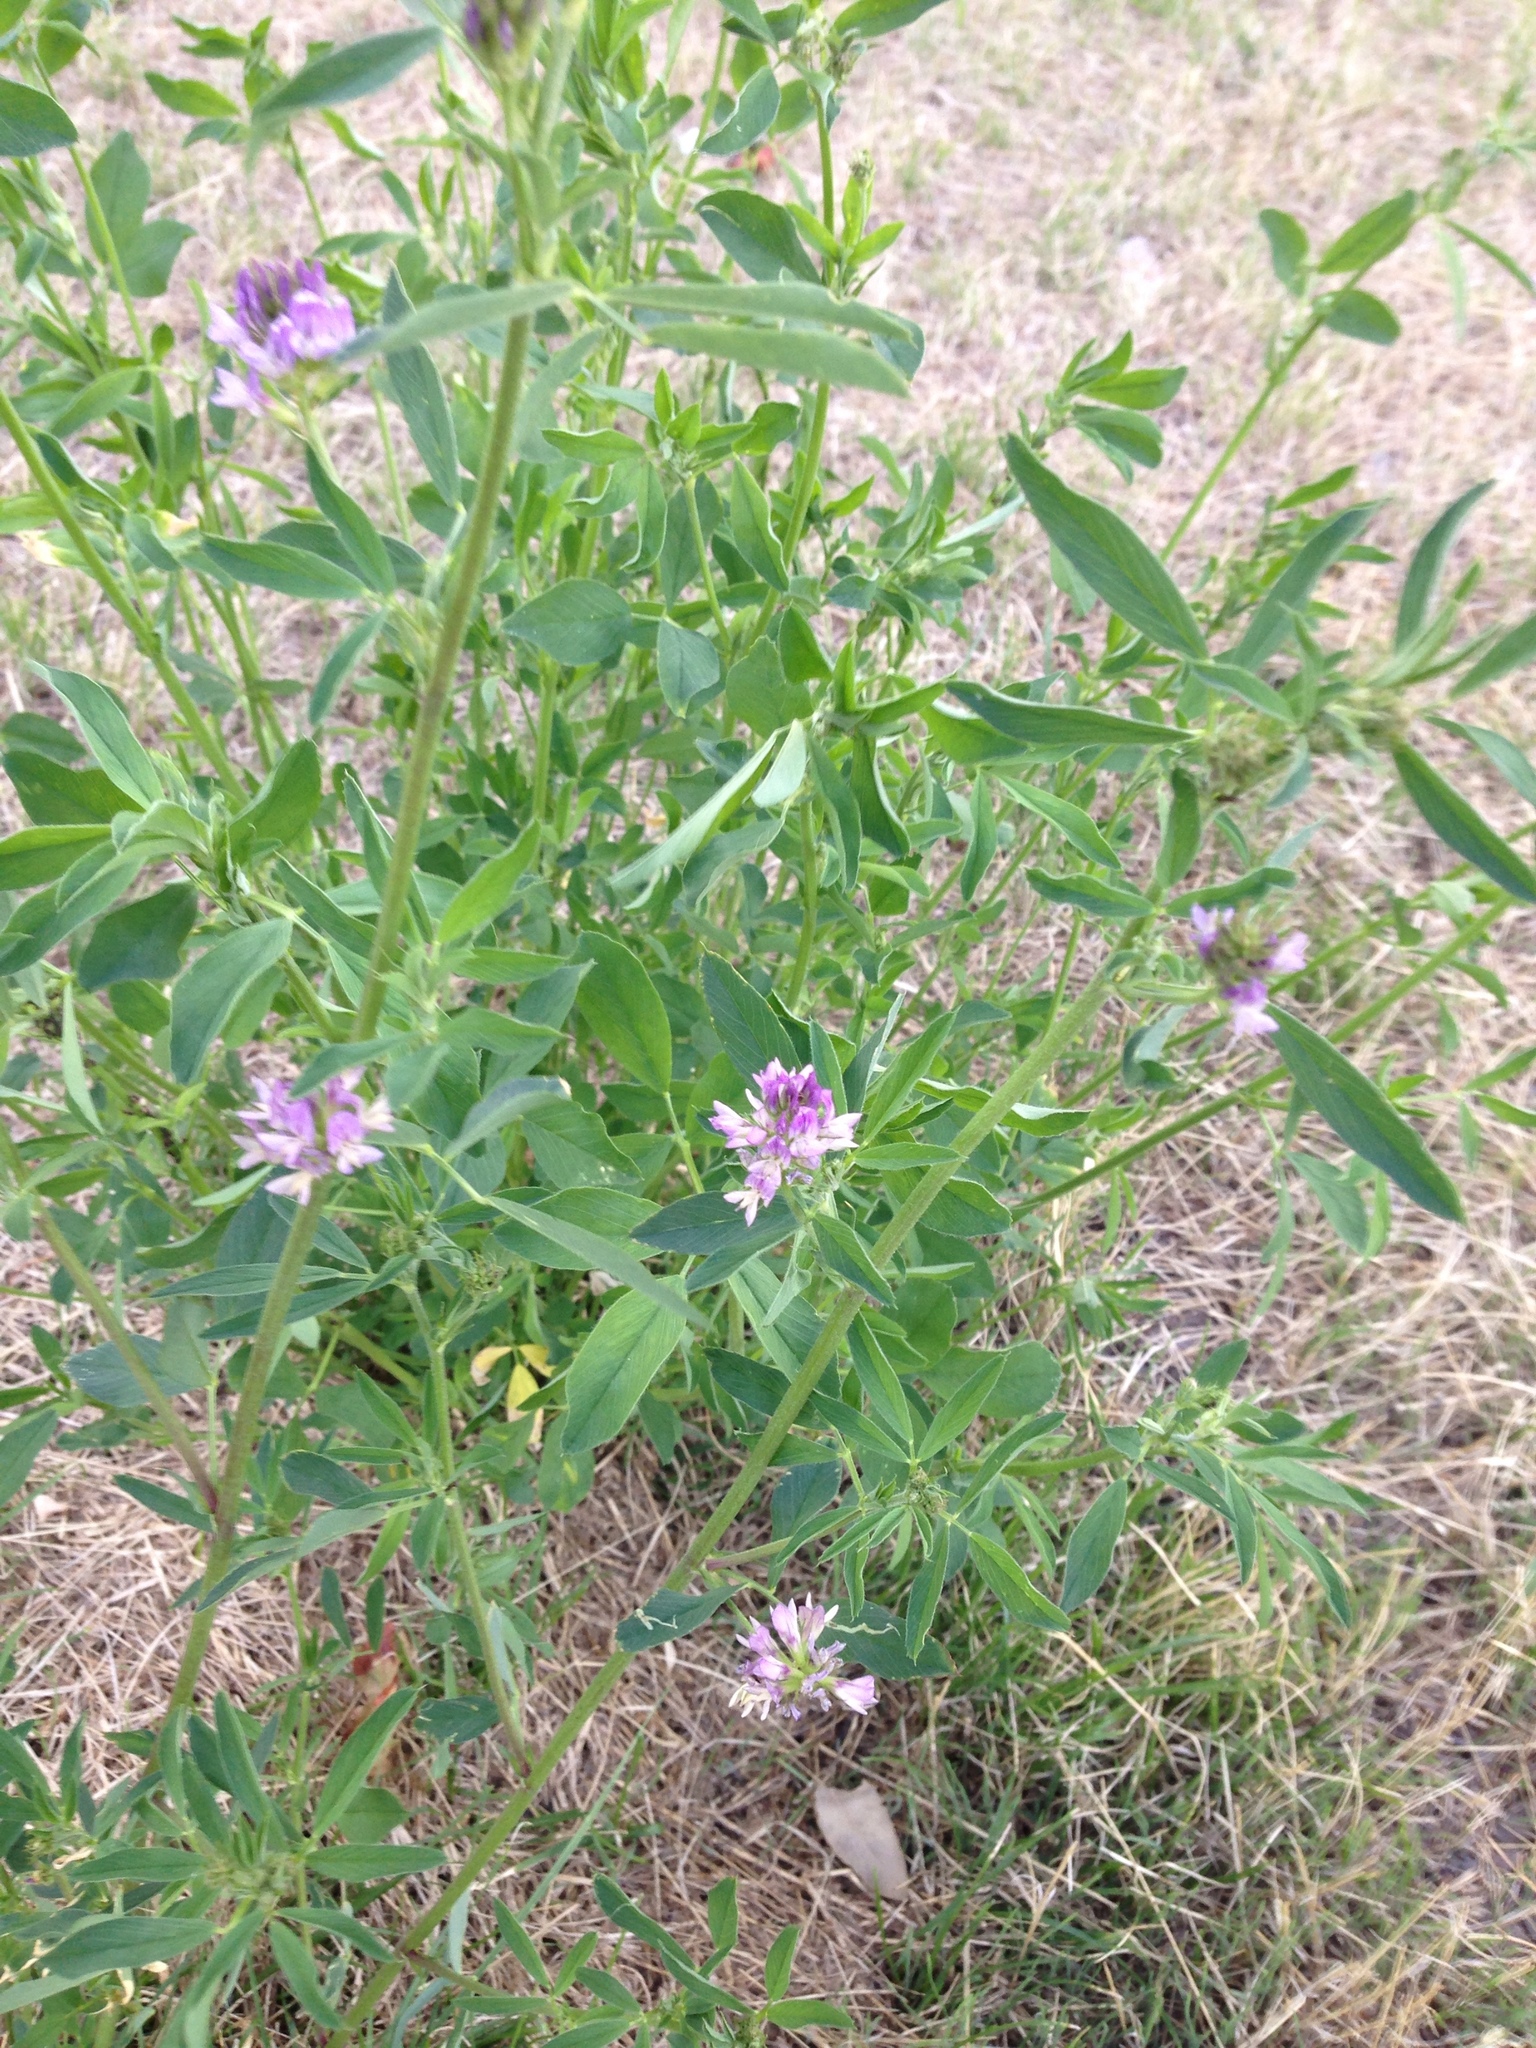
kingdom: Plantae
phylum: Tracheophyta
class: Magnoliopsida
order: Fabales
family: Fabaceae
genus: Medicago
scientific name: Medicago sativa
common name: Alfalfa
